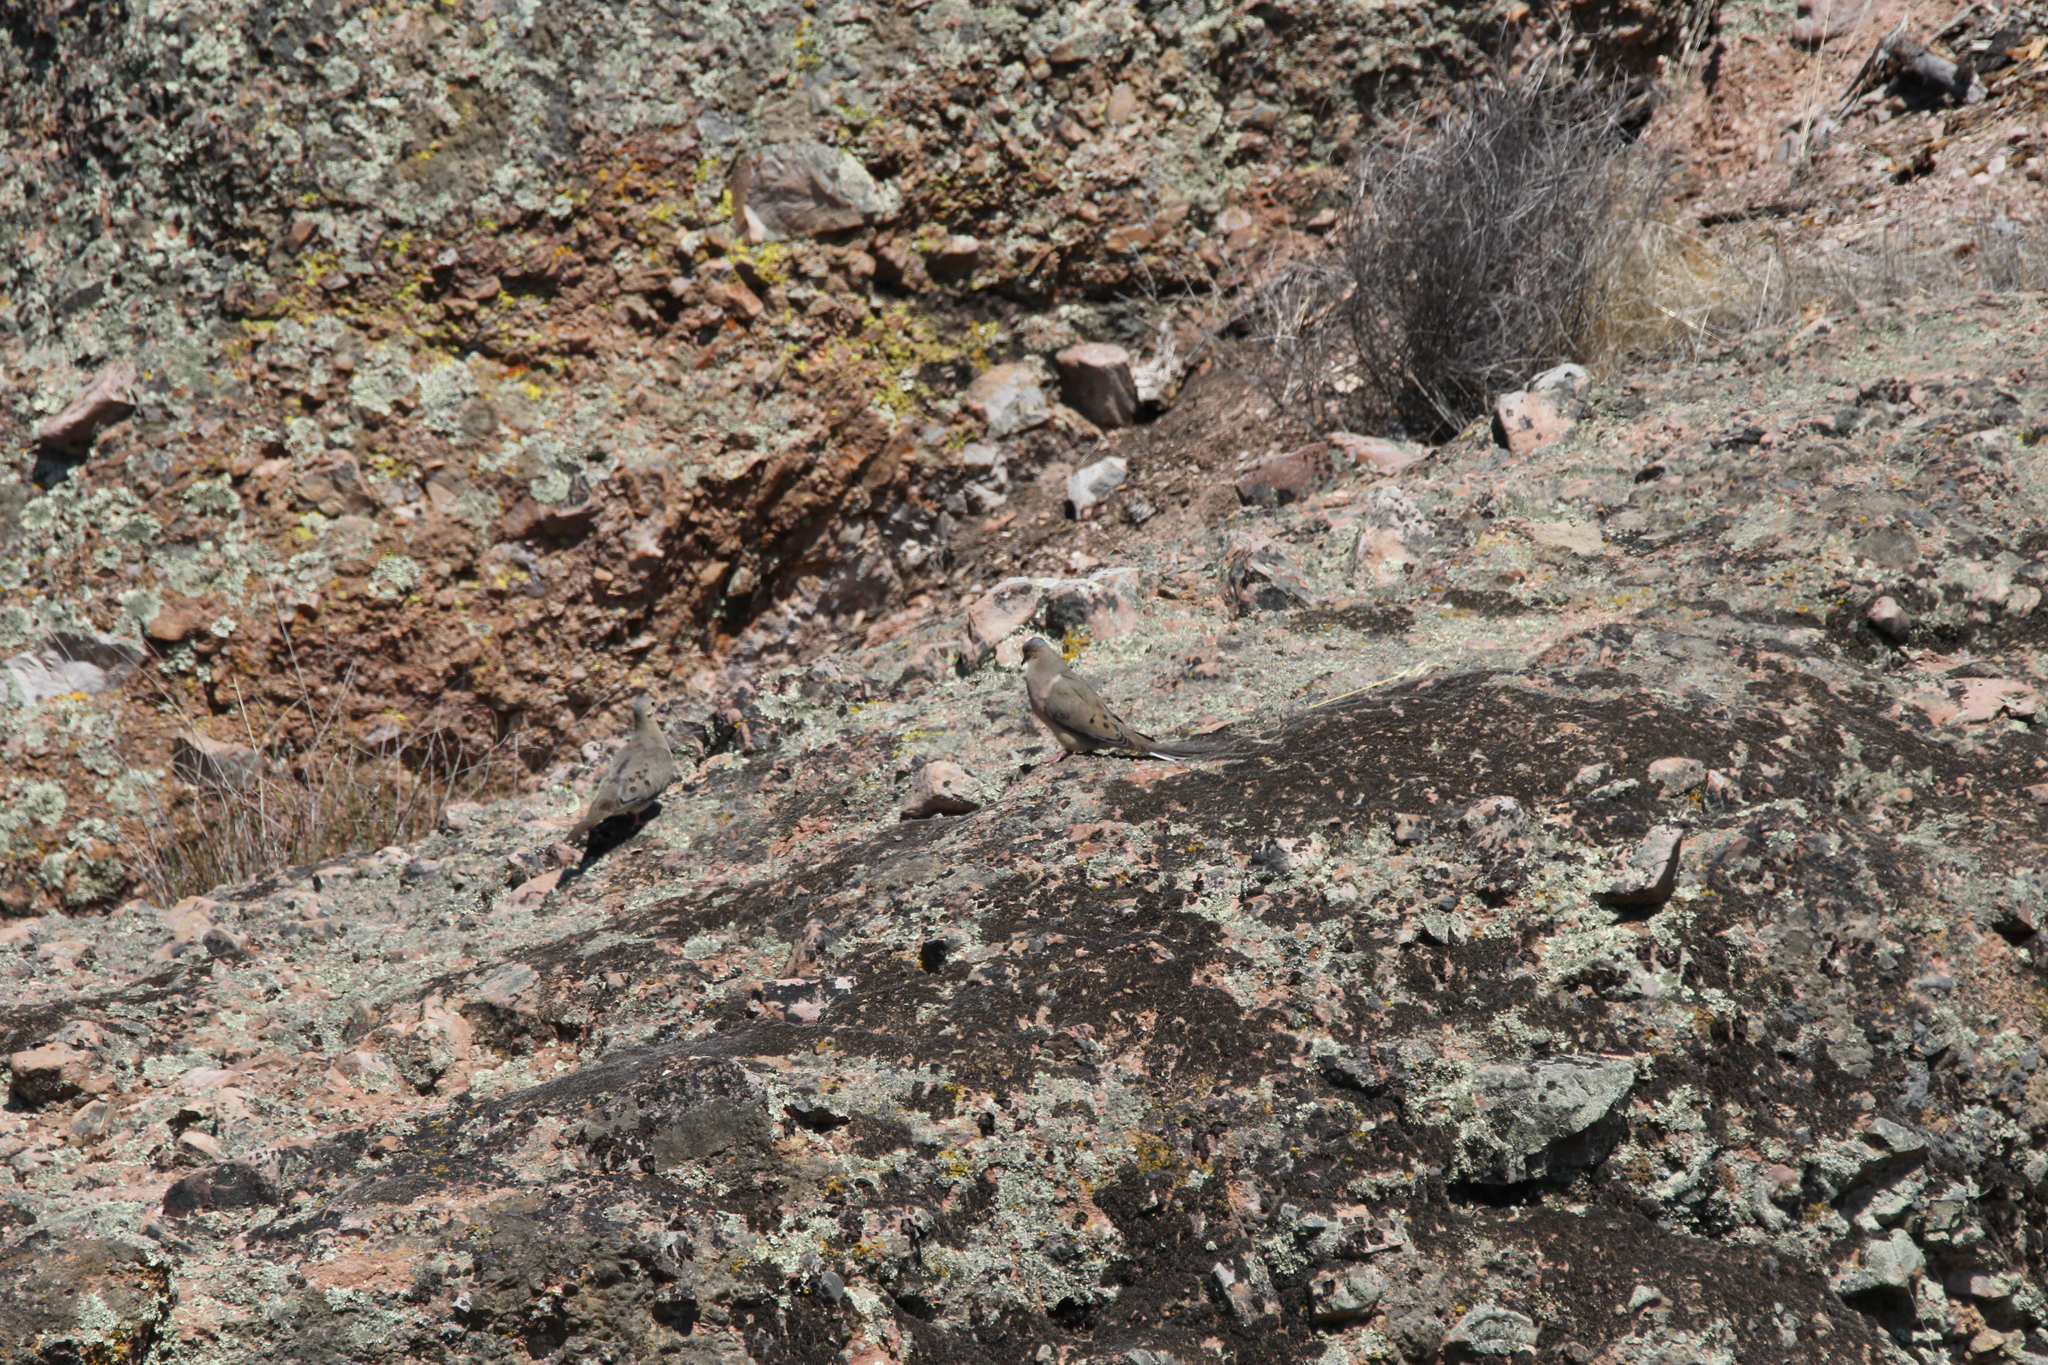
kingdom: Animalia
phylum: Chordata
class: Aves
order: Columbiformes
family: Columbidae
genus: Zenaida
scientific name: Zenaida macroura
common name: Mourning dove
